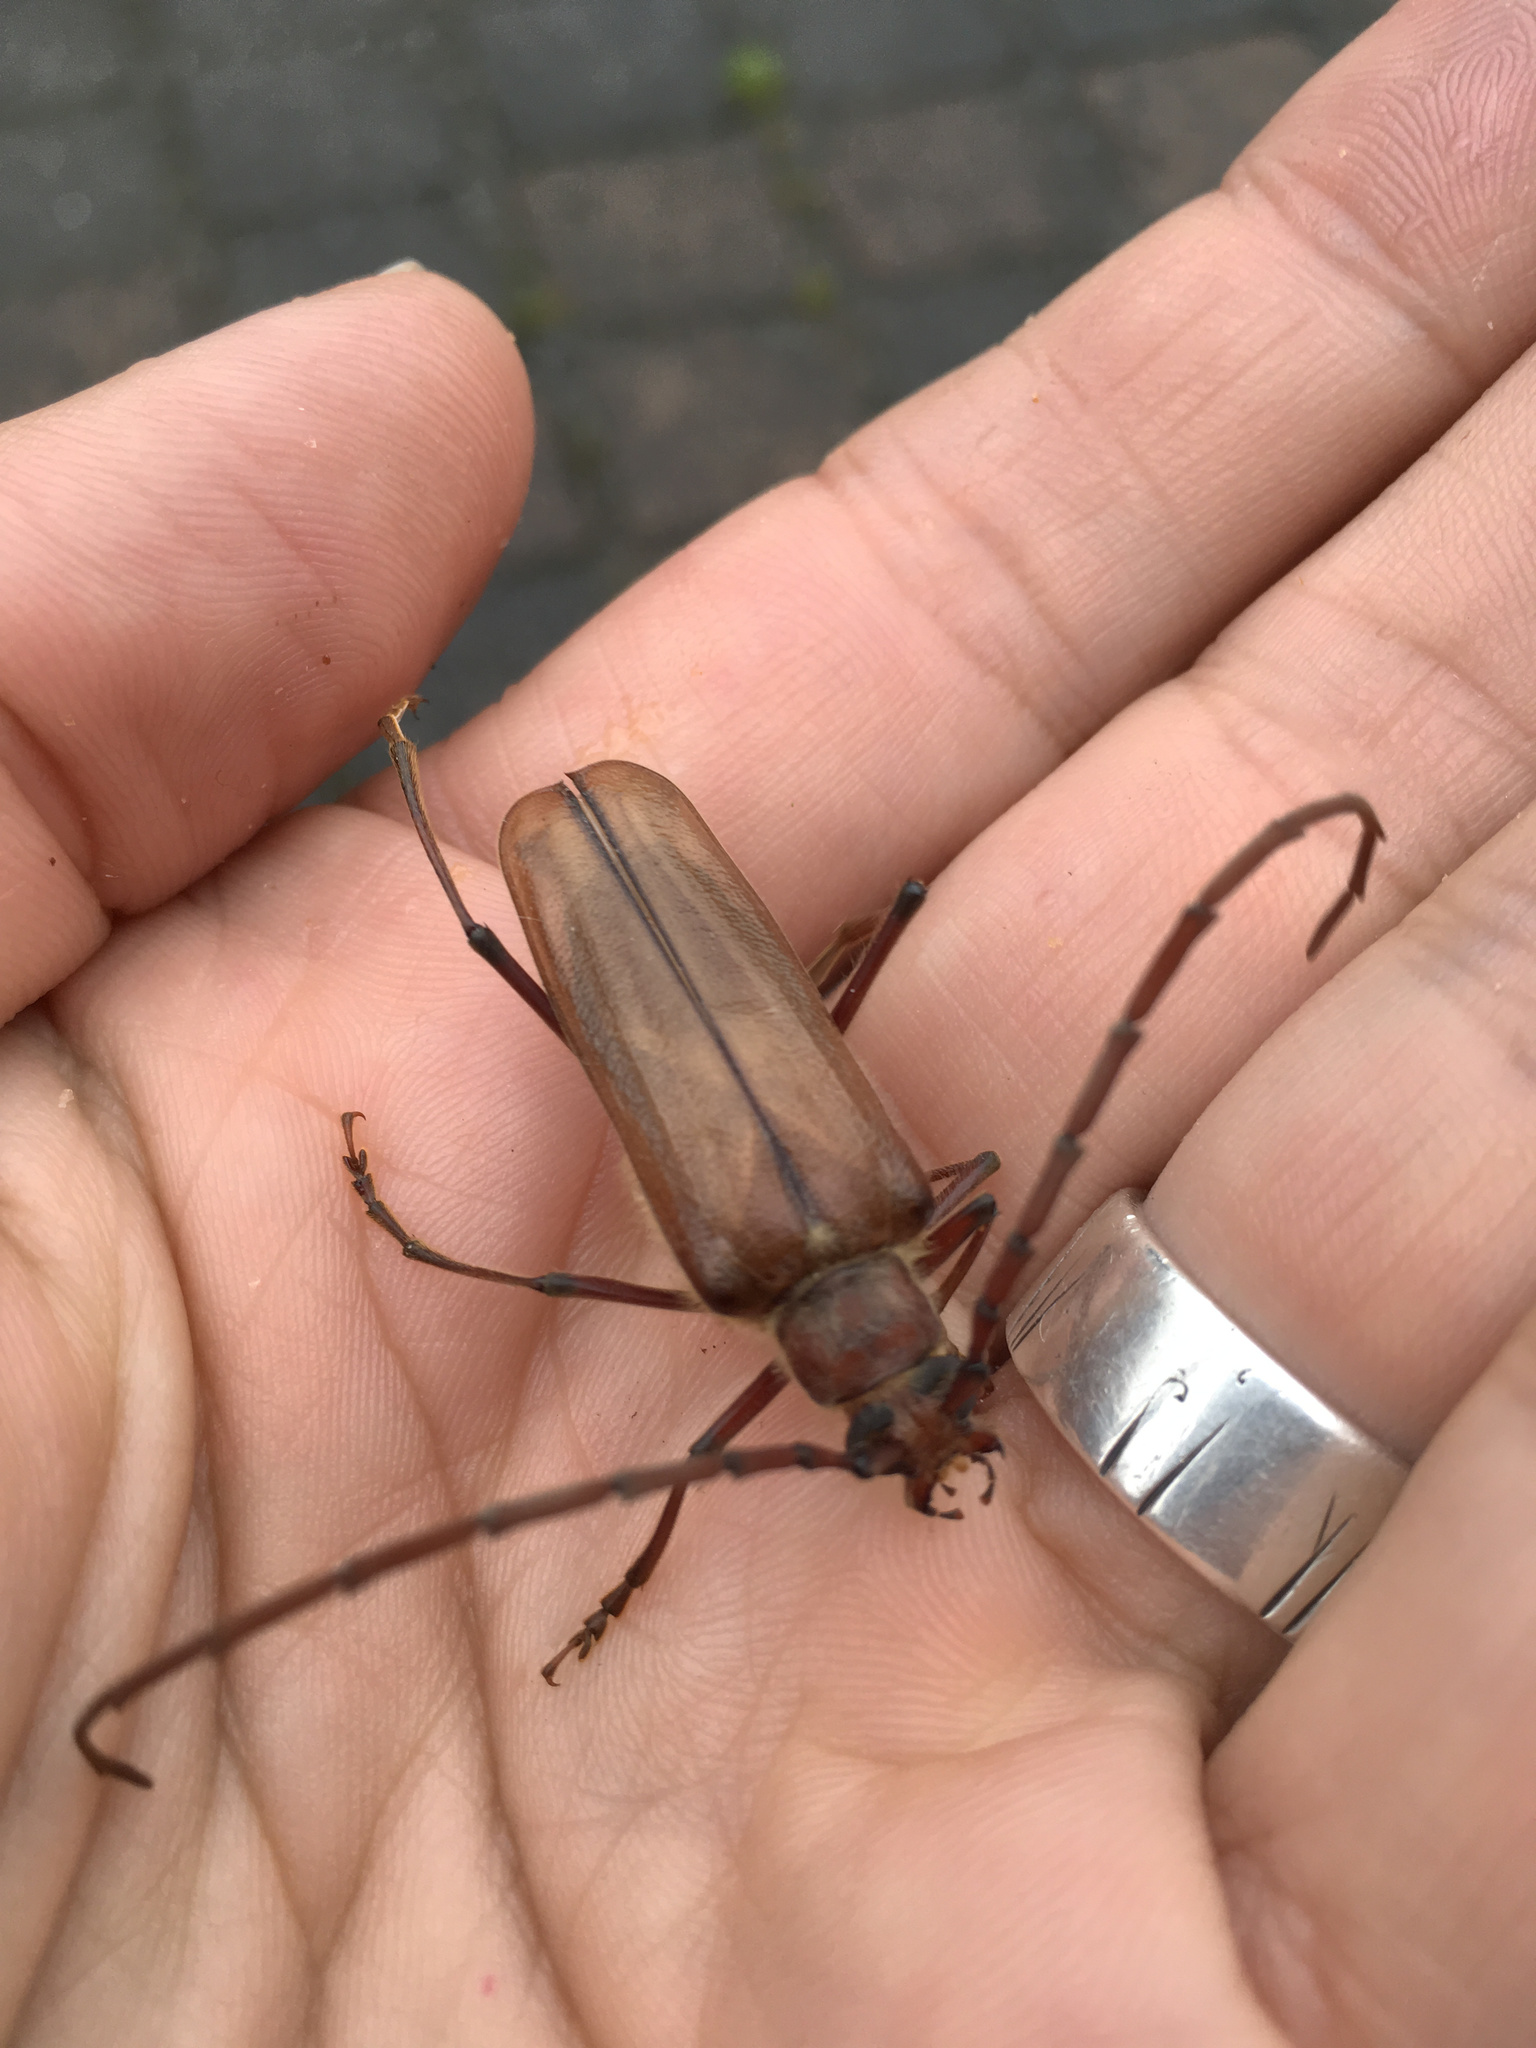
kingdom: Animalia
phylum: Arthropoda
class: Insecta
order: Coleoptera
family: Cerambycidae
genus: Ochrocydus
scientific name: Ochrocydus huttoni
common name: Kanuka longhorn
